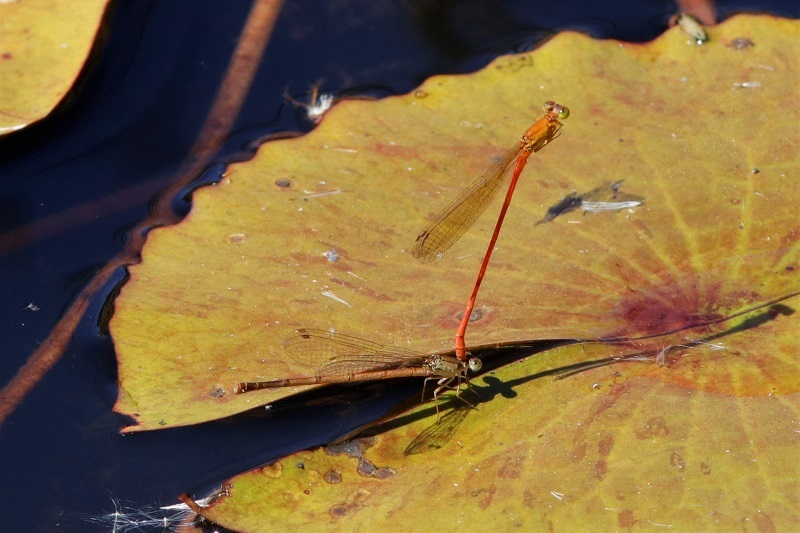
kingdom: Animalia
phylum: Arthropoda
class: Insecta
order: Odonata
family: Coenagrionidae
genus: Ceriagrion
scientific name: Ceriagrion glabrum
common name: Common pond damsel
